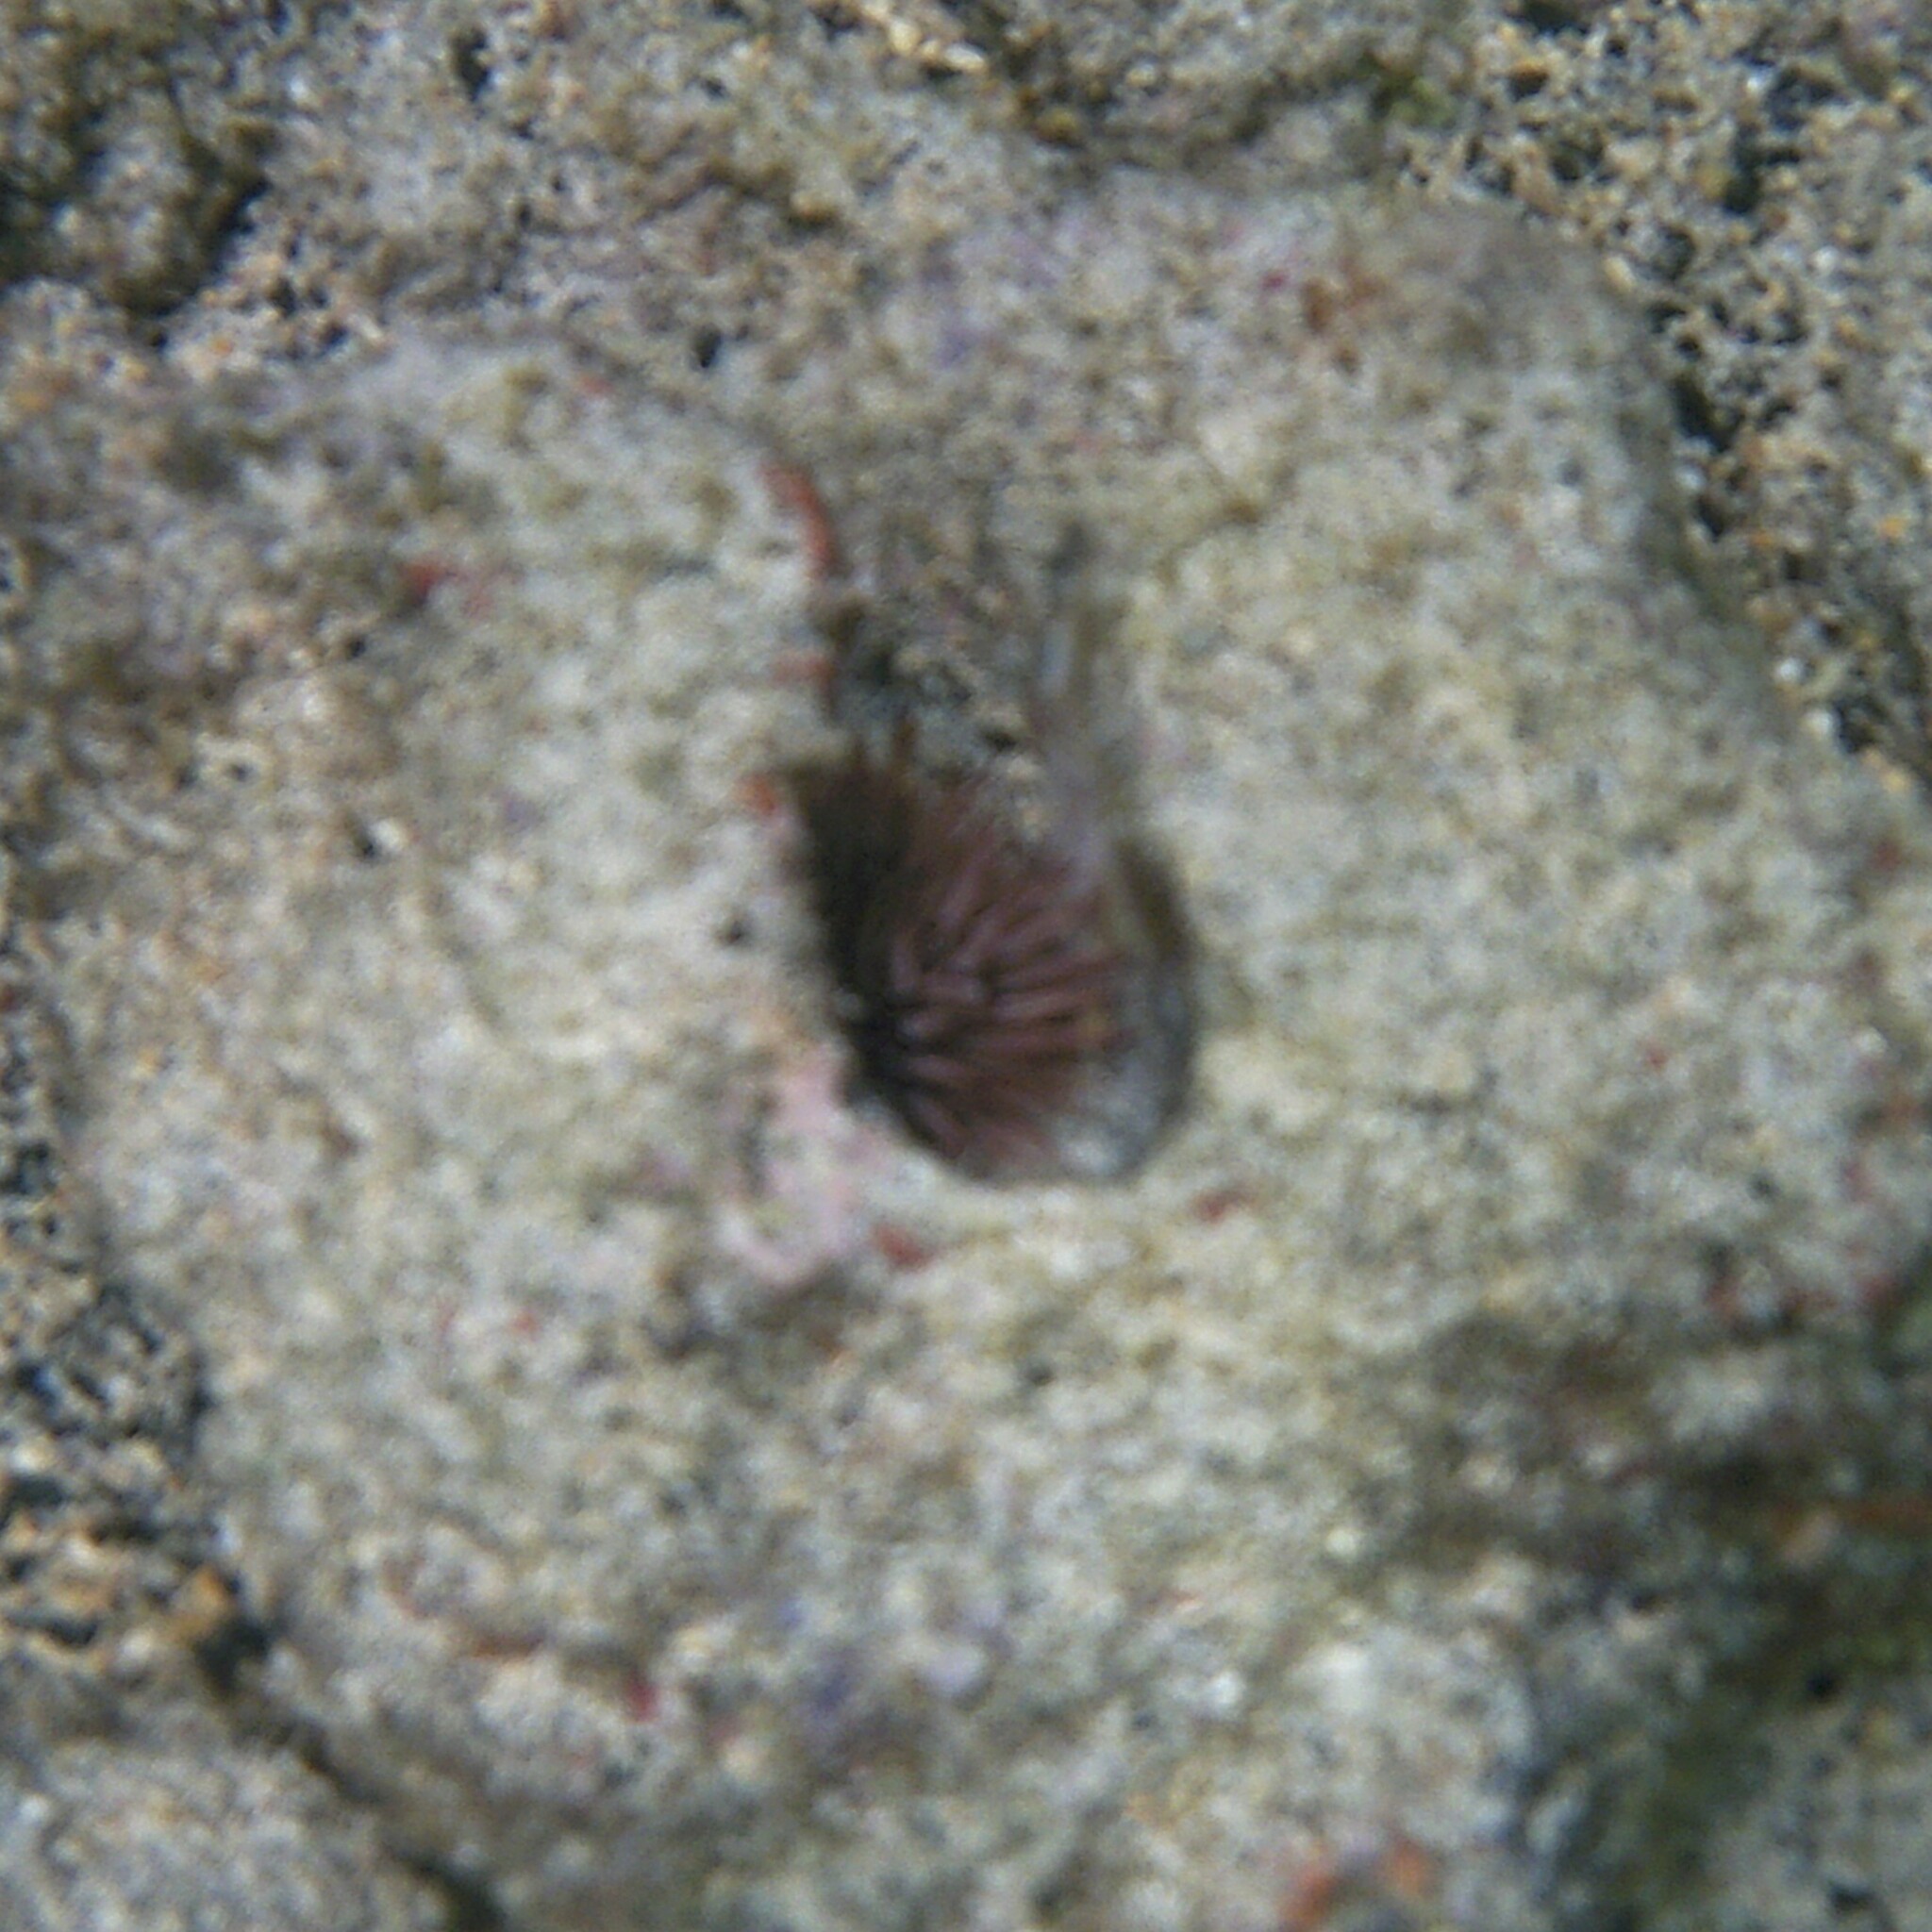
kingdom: Animalia
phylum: Echinodermata
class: Echinoidea
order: Camarodonta
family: Echinometridae
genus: Echinometra
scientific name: Echinometra mathaei
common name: Rock-boring urchin
